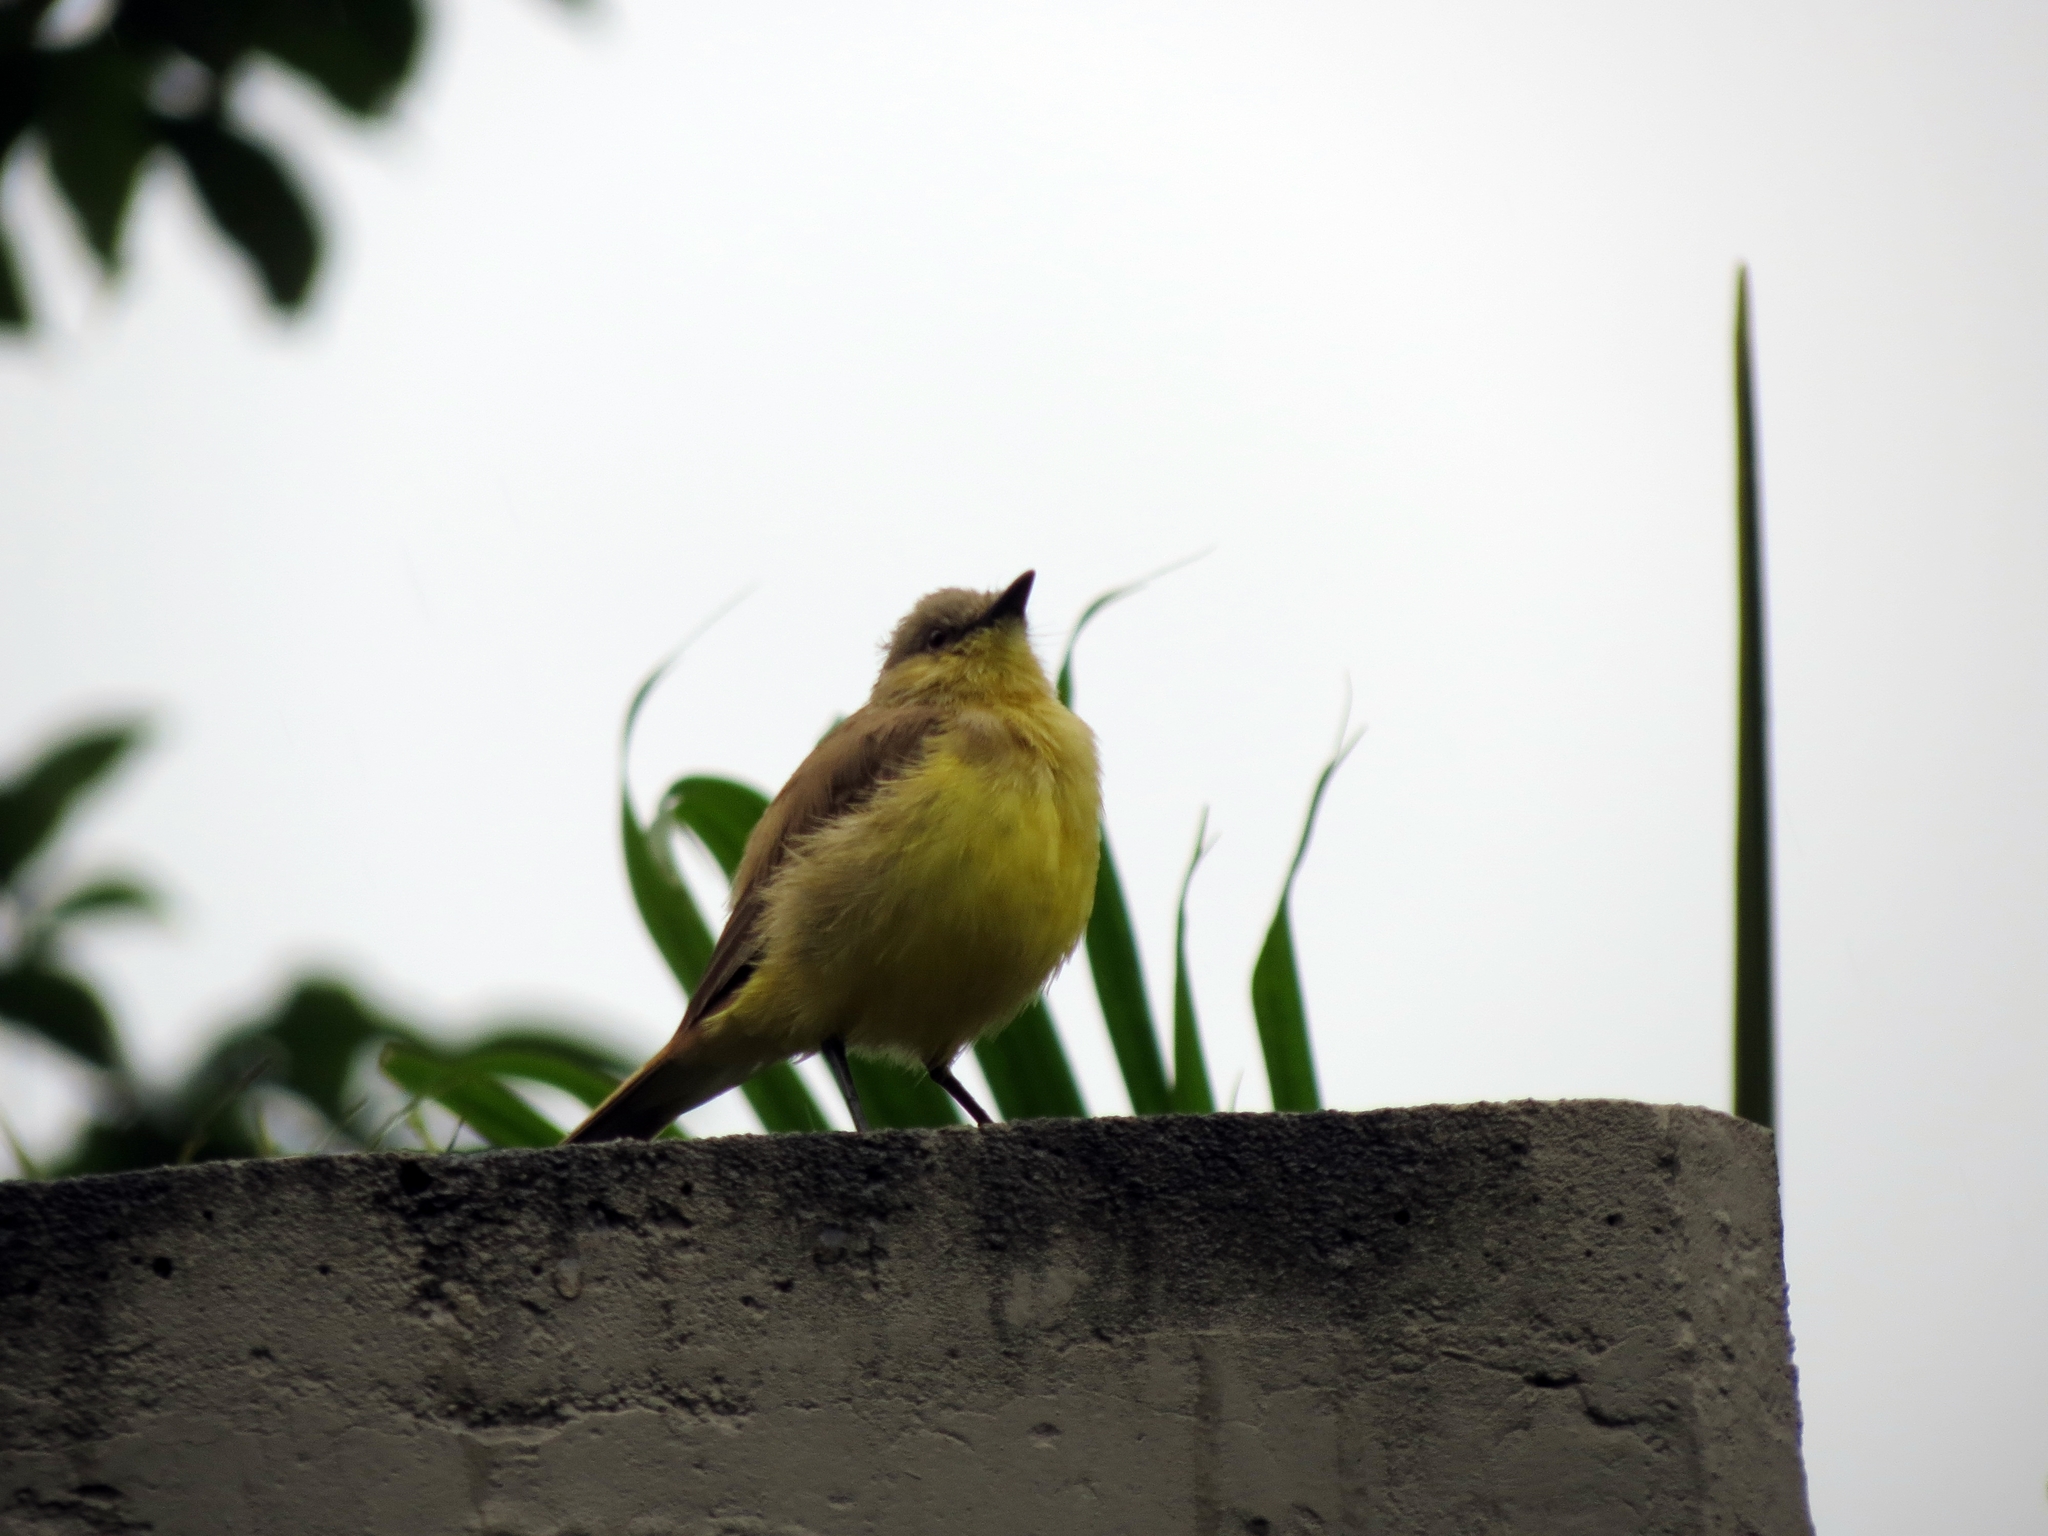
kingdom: Animalia
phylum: Chordata
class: Aves
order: Passeriformes
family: Tyrannidae
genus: Machetornis
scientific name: Machetornis rixosa
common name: Cattle tyrant
